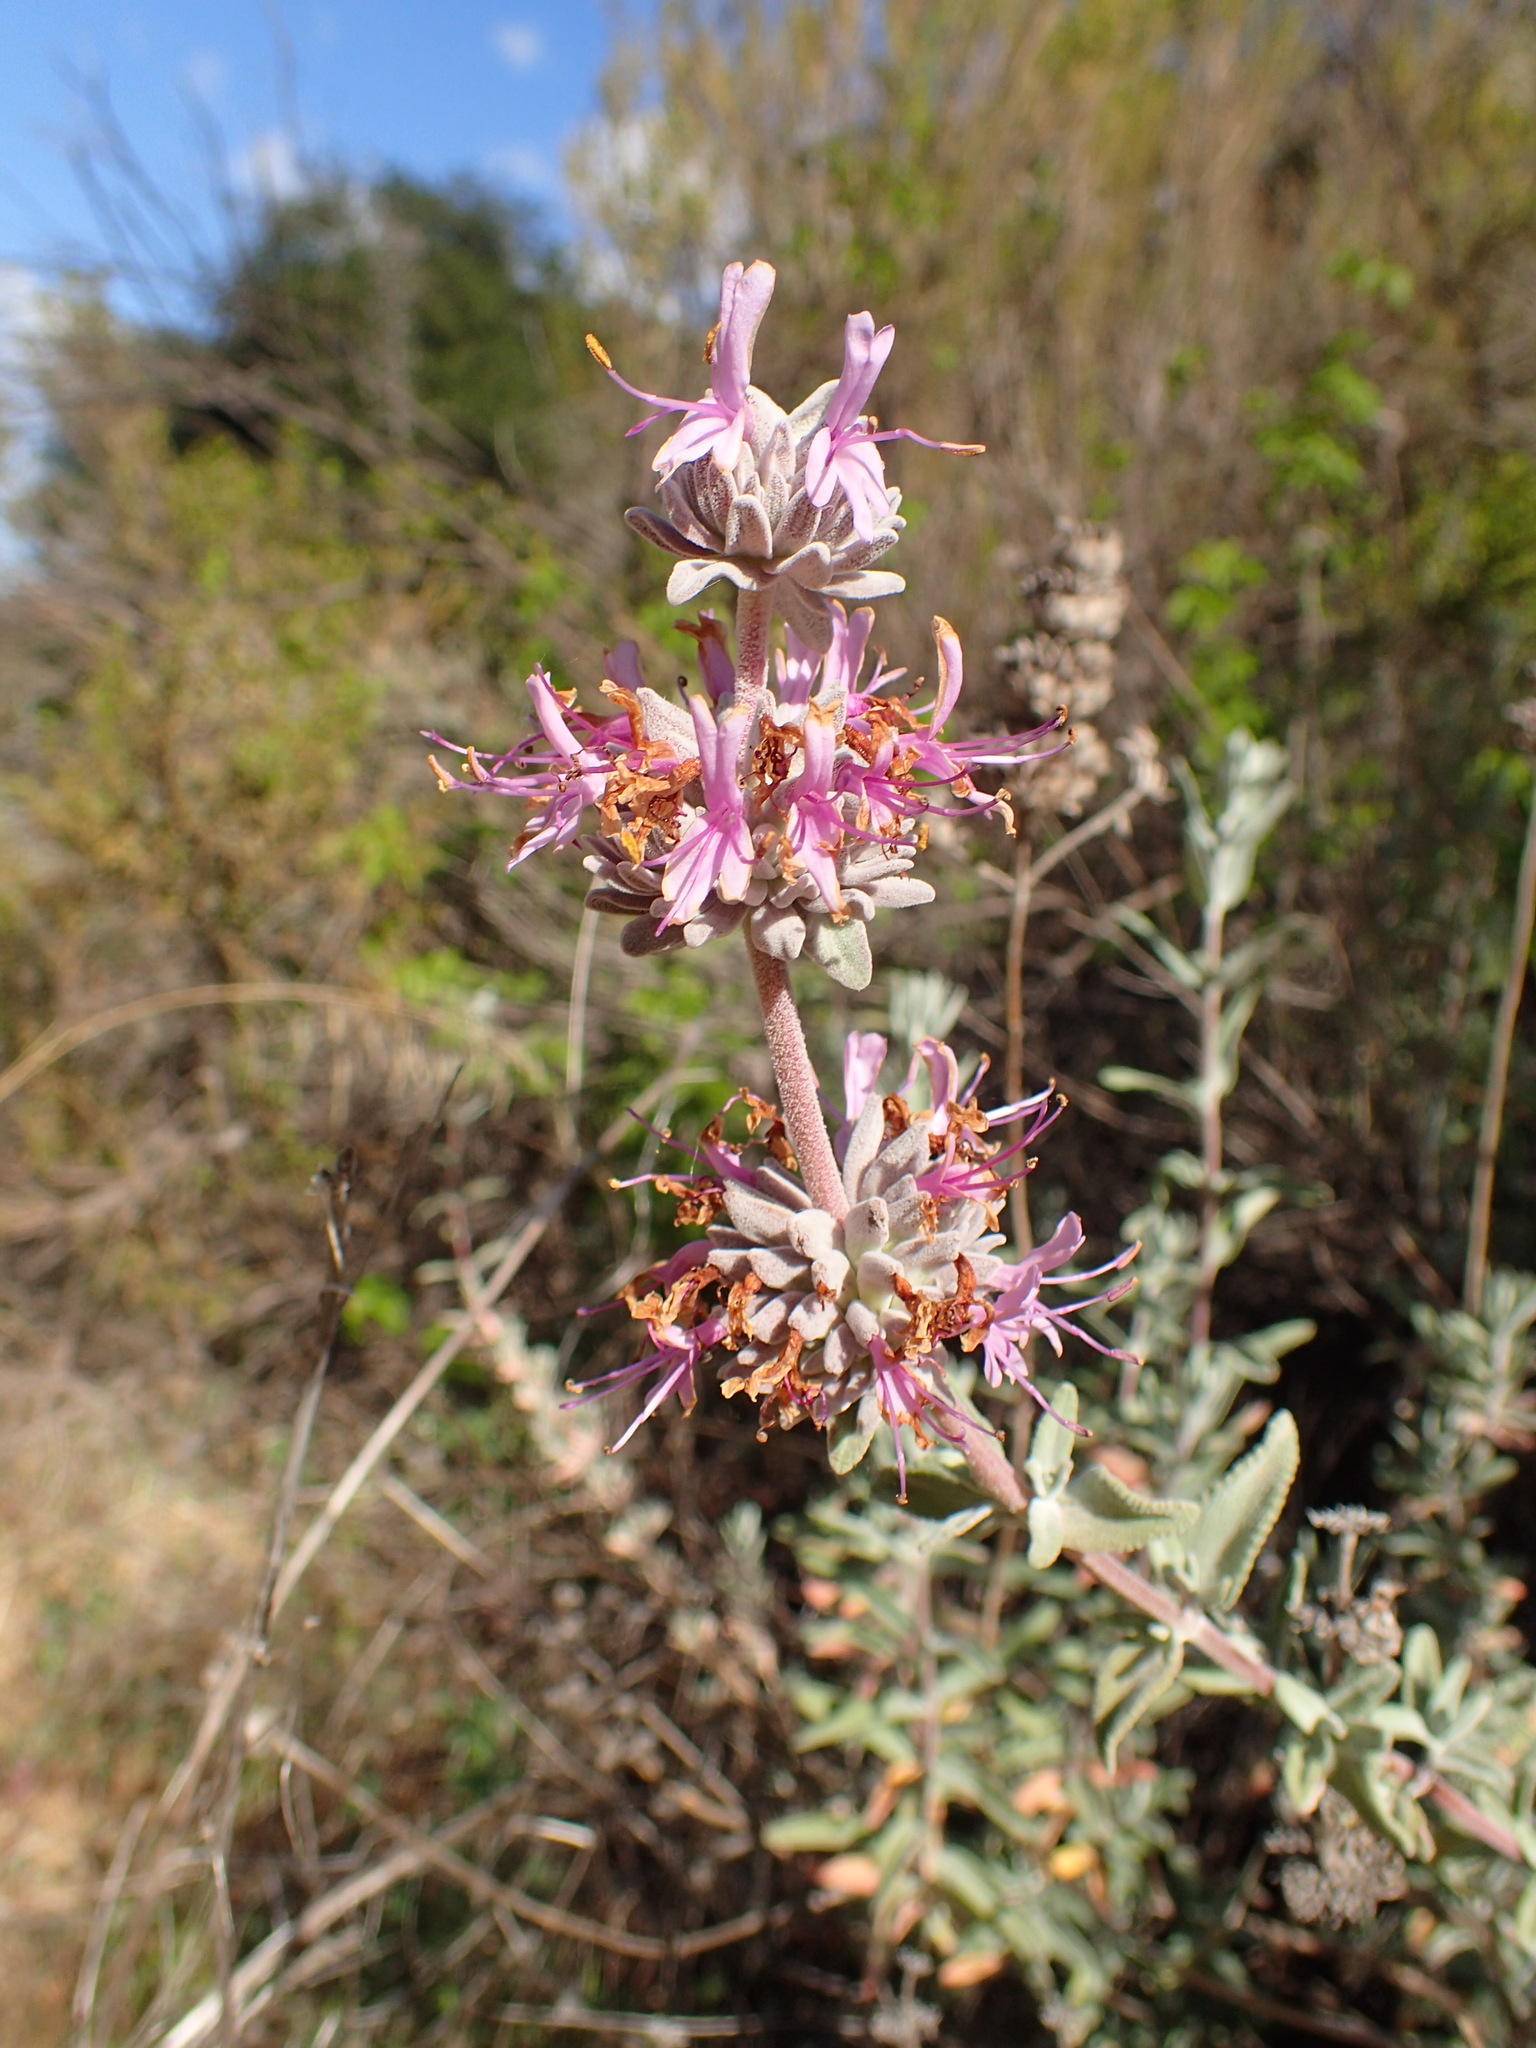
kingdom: Plantae
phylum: Tracheophyta
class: Magnoliopsida
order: Lamiales
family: Lamiaceae
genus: Salvia
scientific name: Salvia leucophylla
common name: Purple sage
